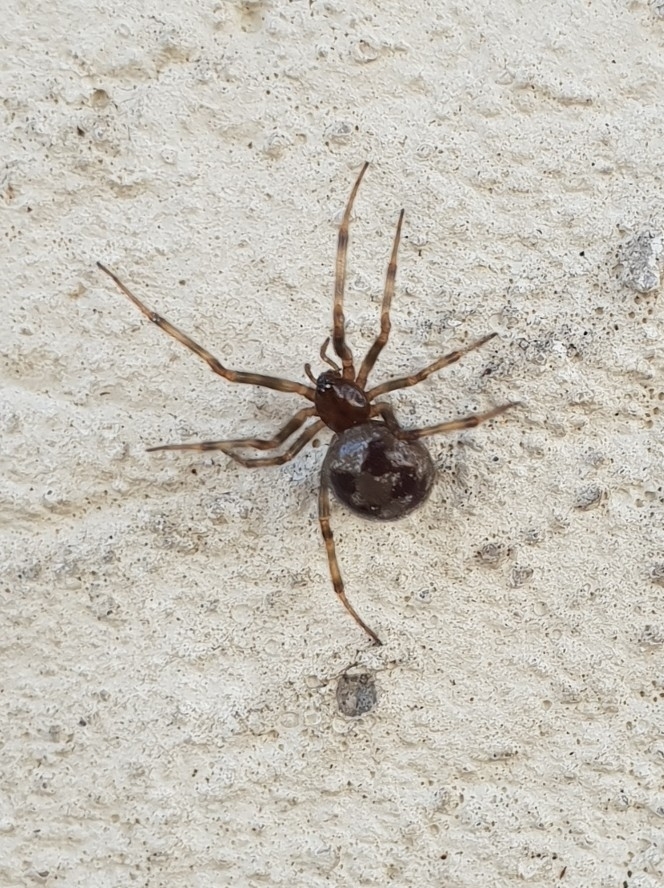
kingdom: Animalia
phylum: Arthropoda
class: Arachnida
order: Araneae
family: Theridiidae
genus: Steatoda
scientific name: Steatoda triangulosa
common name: Triangulate bud spider
